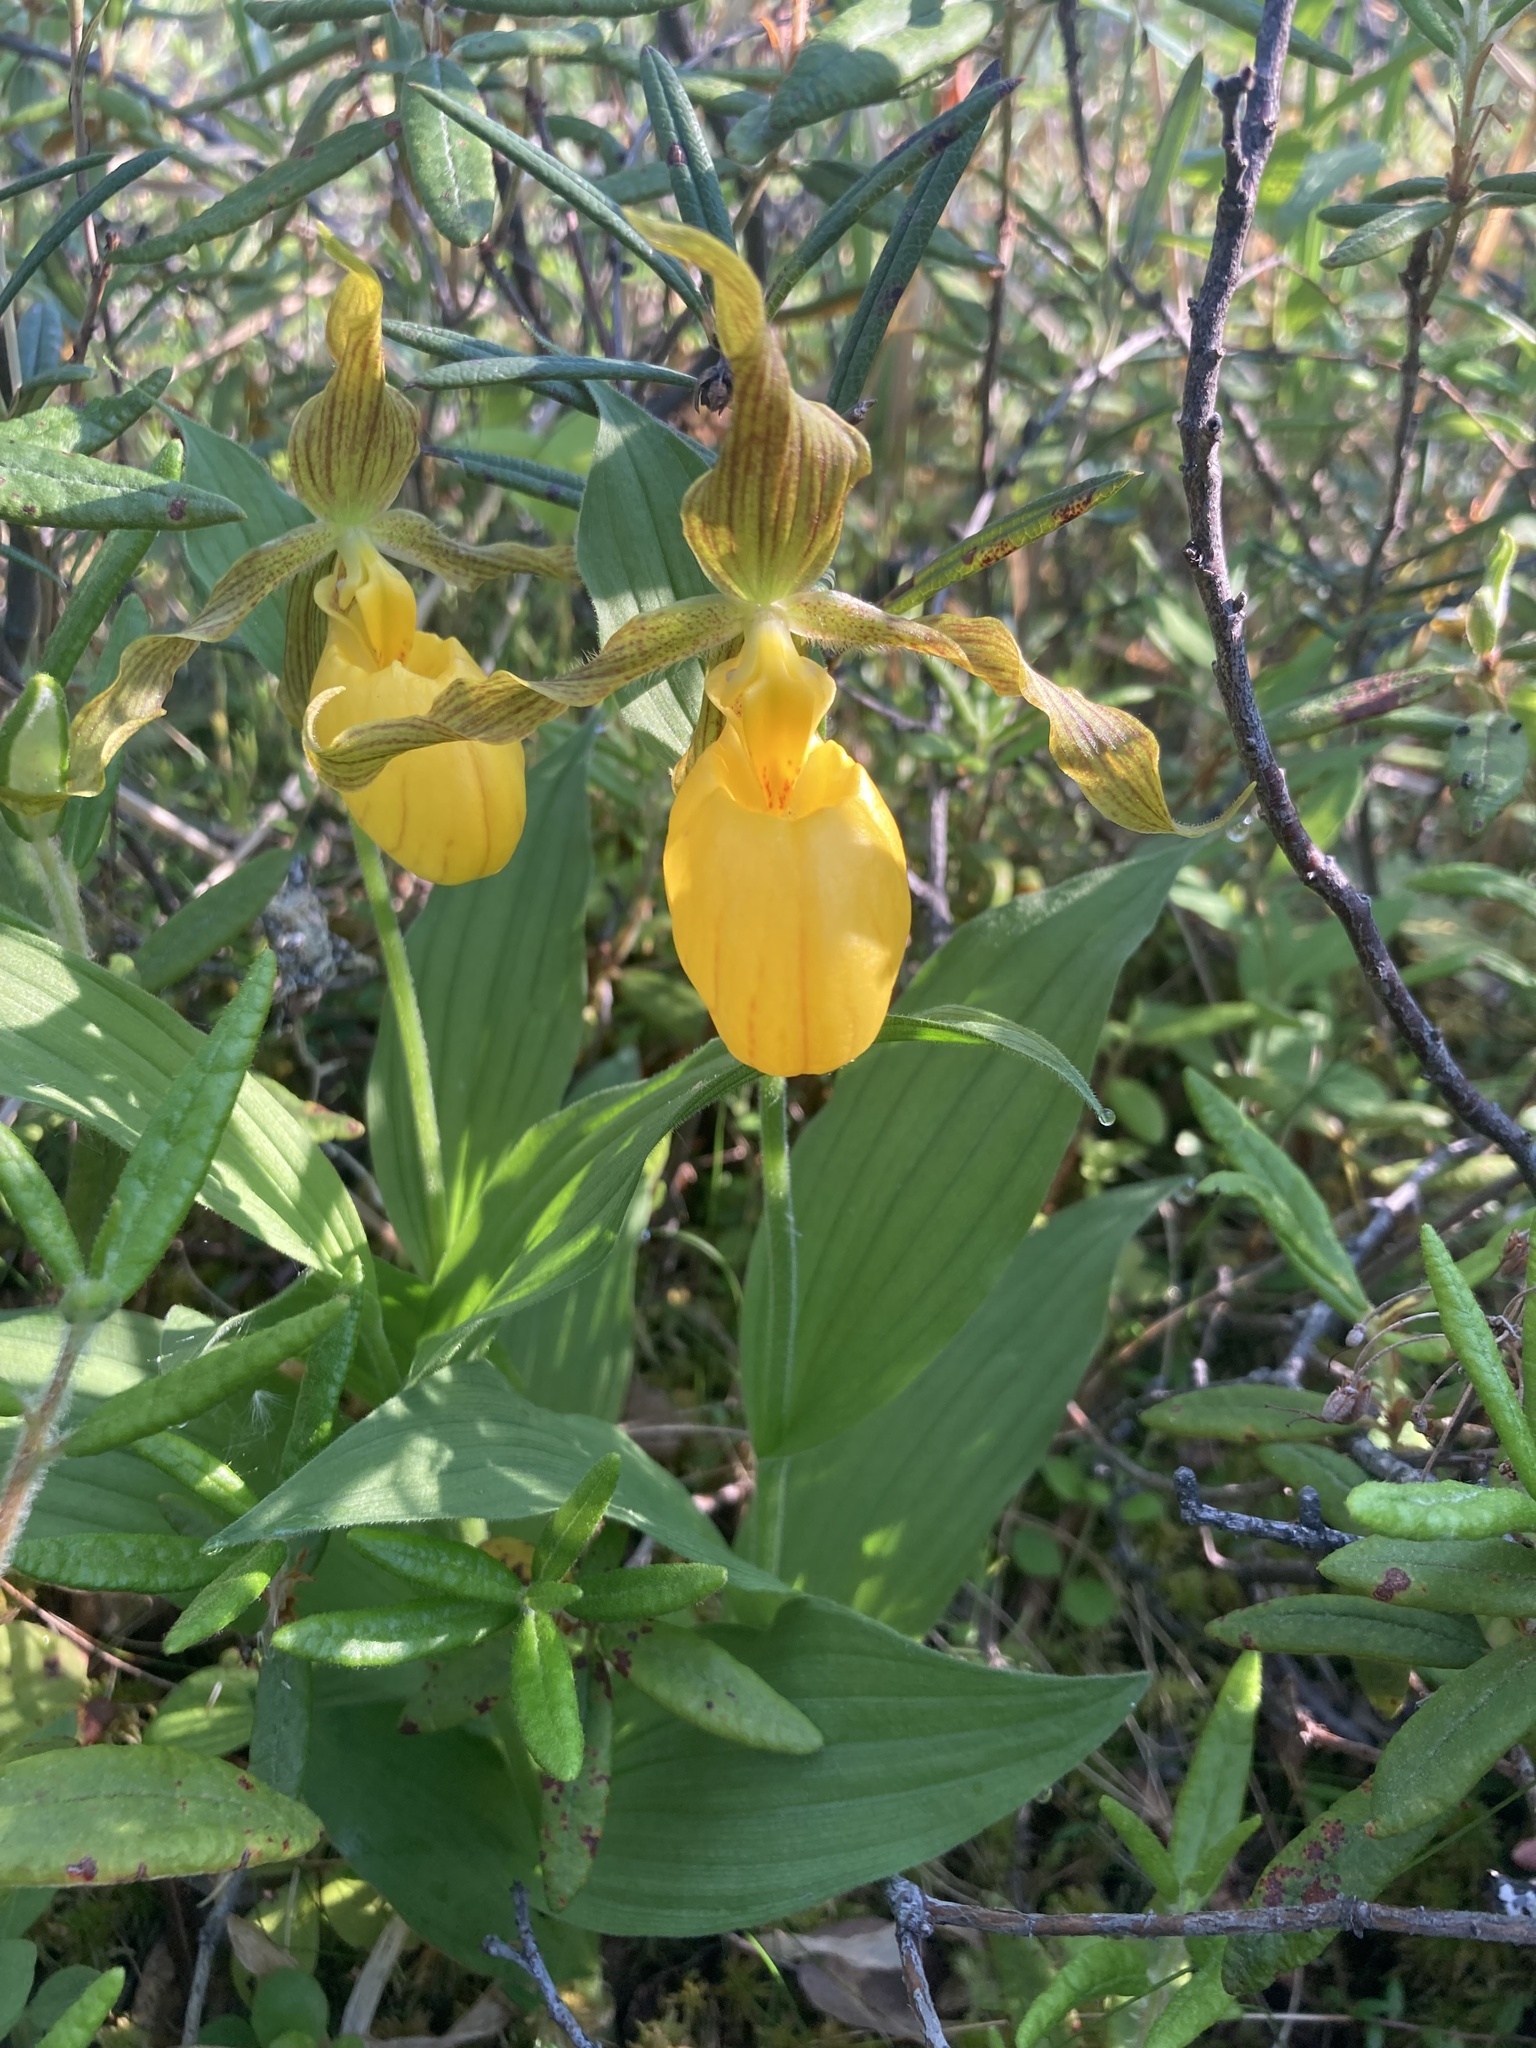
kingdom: Plantae
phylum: Tracheophyta
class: Liliopsida
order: Asparagales
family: Orchidaceae
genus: Cypripedium
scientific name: Cypripedium parviflorum
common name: American yellow lady's-slipper
